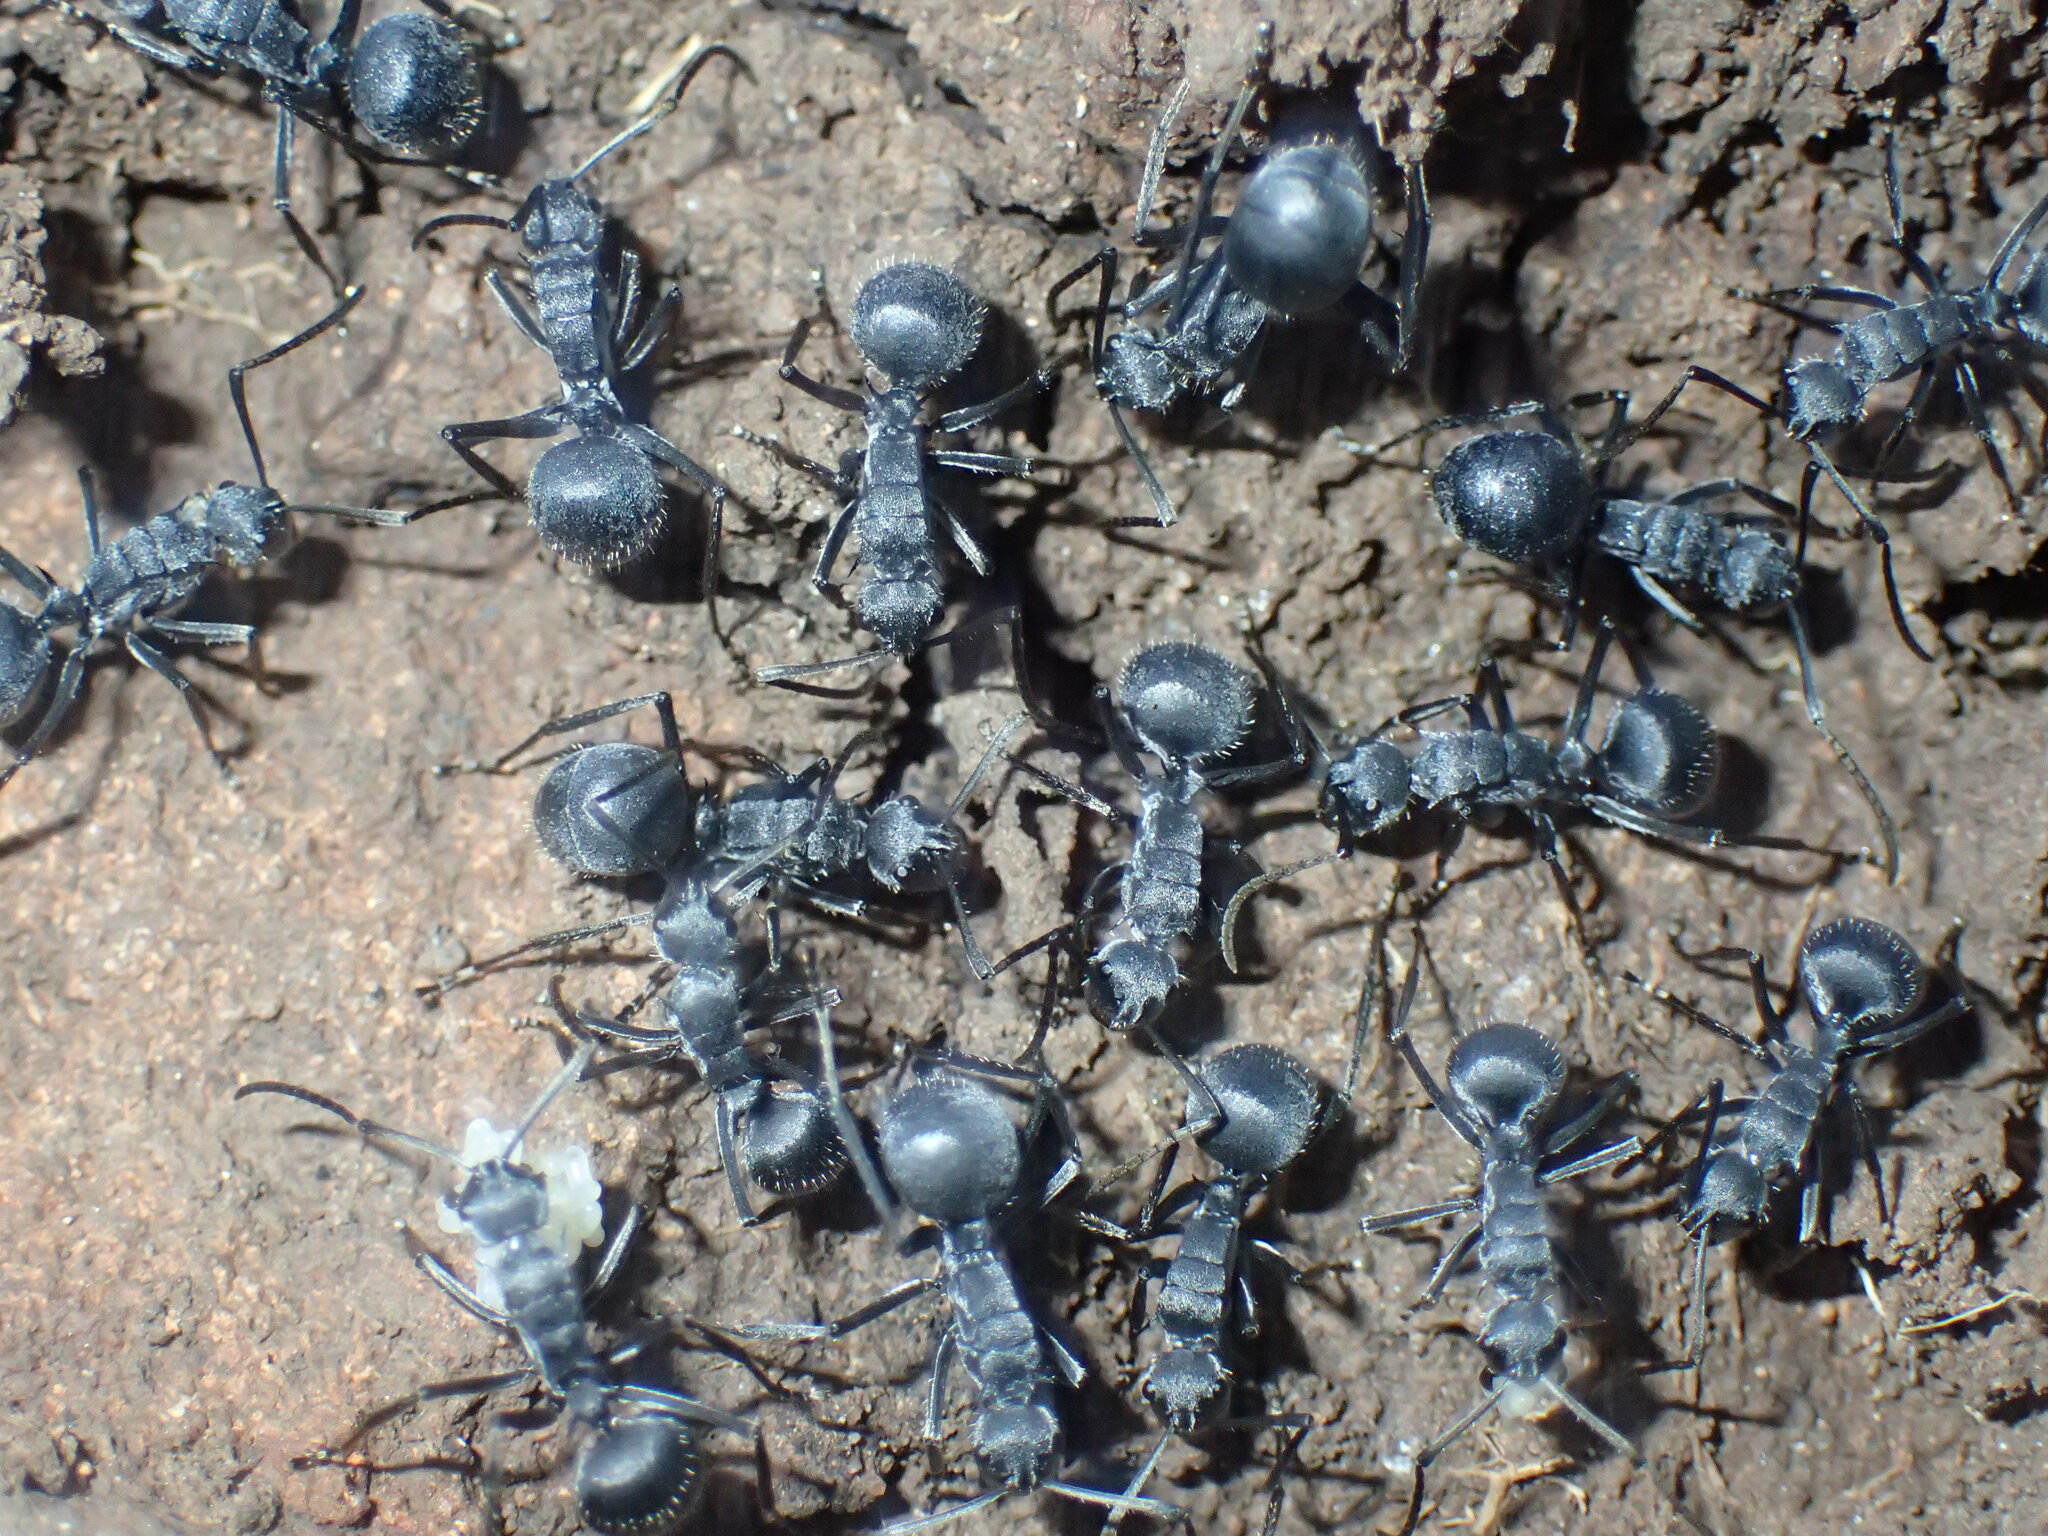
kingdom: Animalia
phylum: Arthropoda
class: Insecta
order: Hymenoptera
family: Formicidae
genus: Polyrhachis
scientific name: Polyrhachis schistacea
